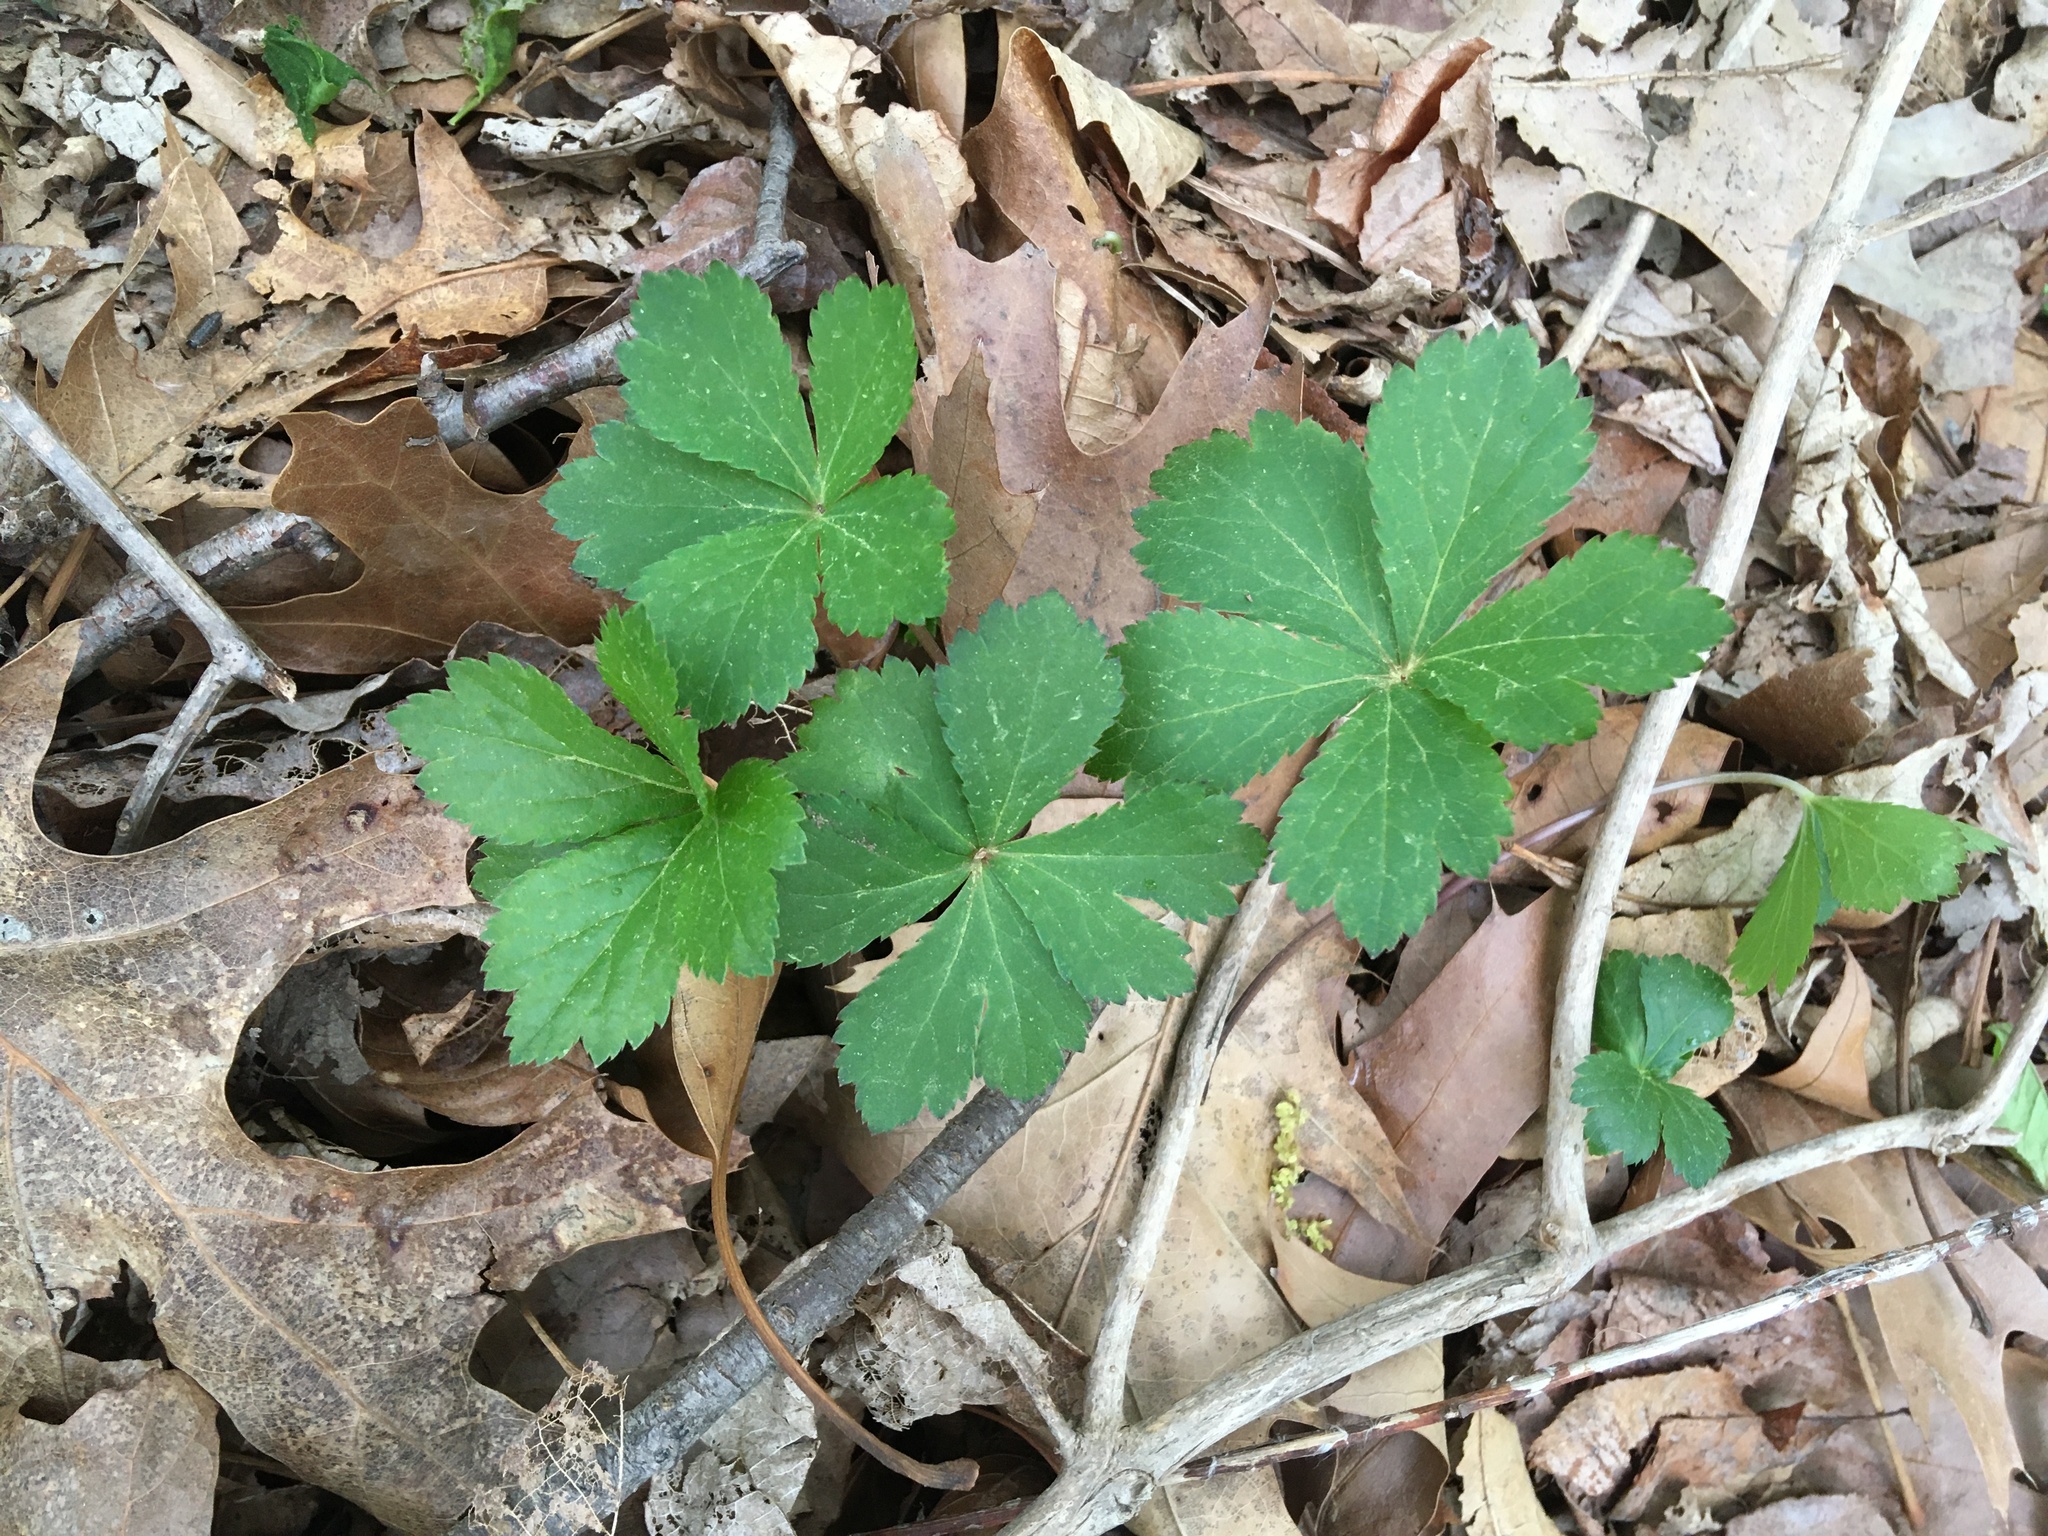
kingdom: Plantae
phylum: Tracheophyta
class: Magnoliopsida
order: Apiales
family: Apiaceae
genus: Sanicula
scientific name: Sanicula canadensis
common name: Canada sanicle
